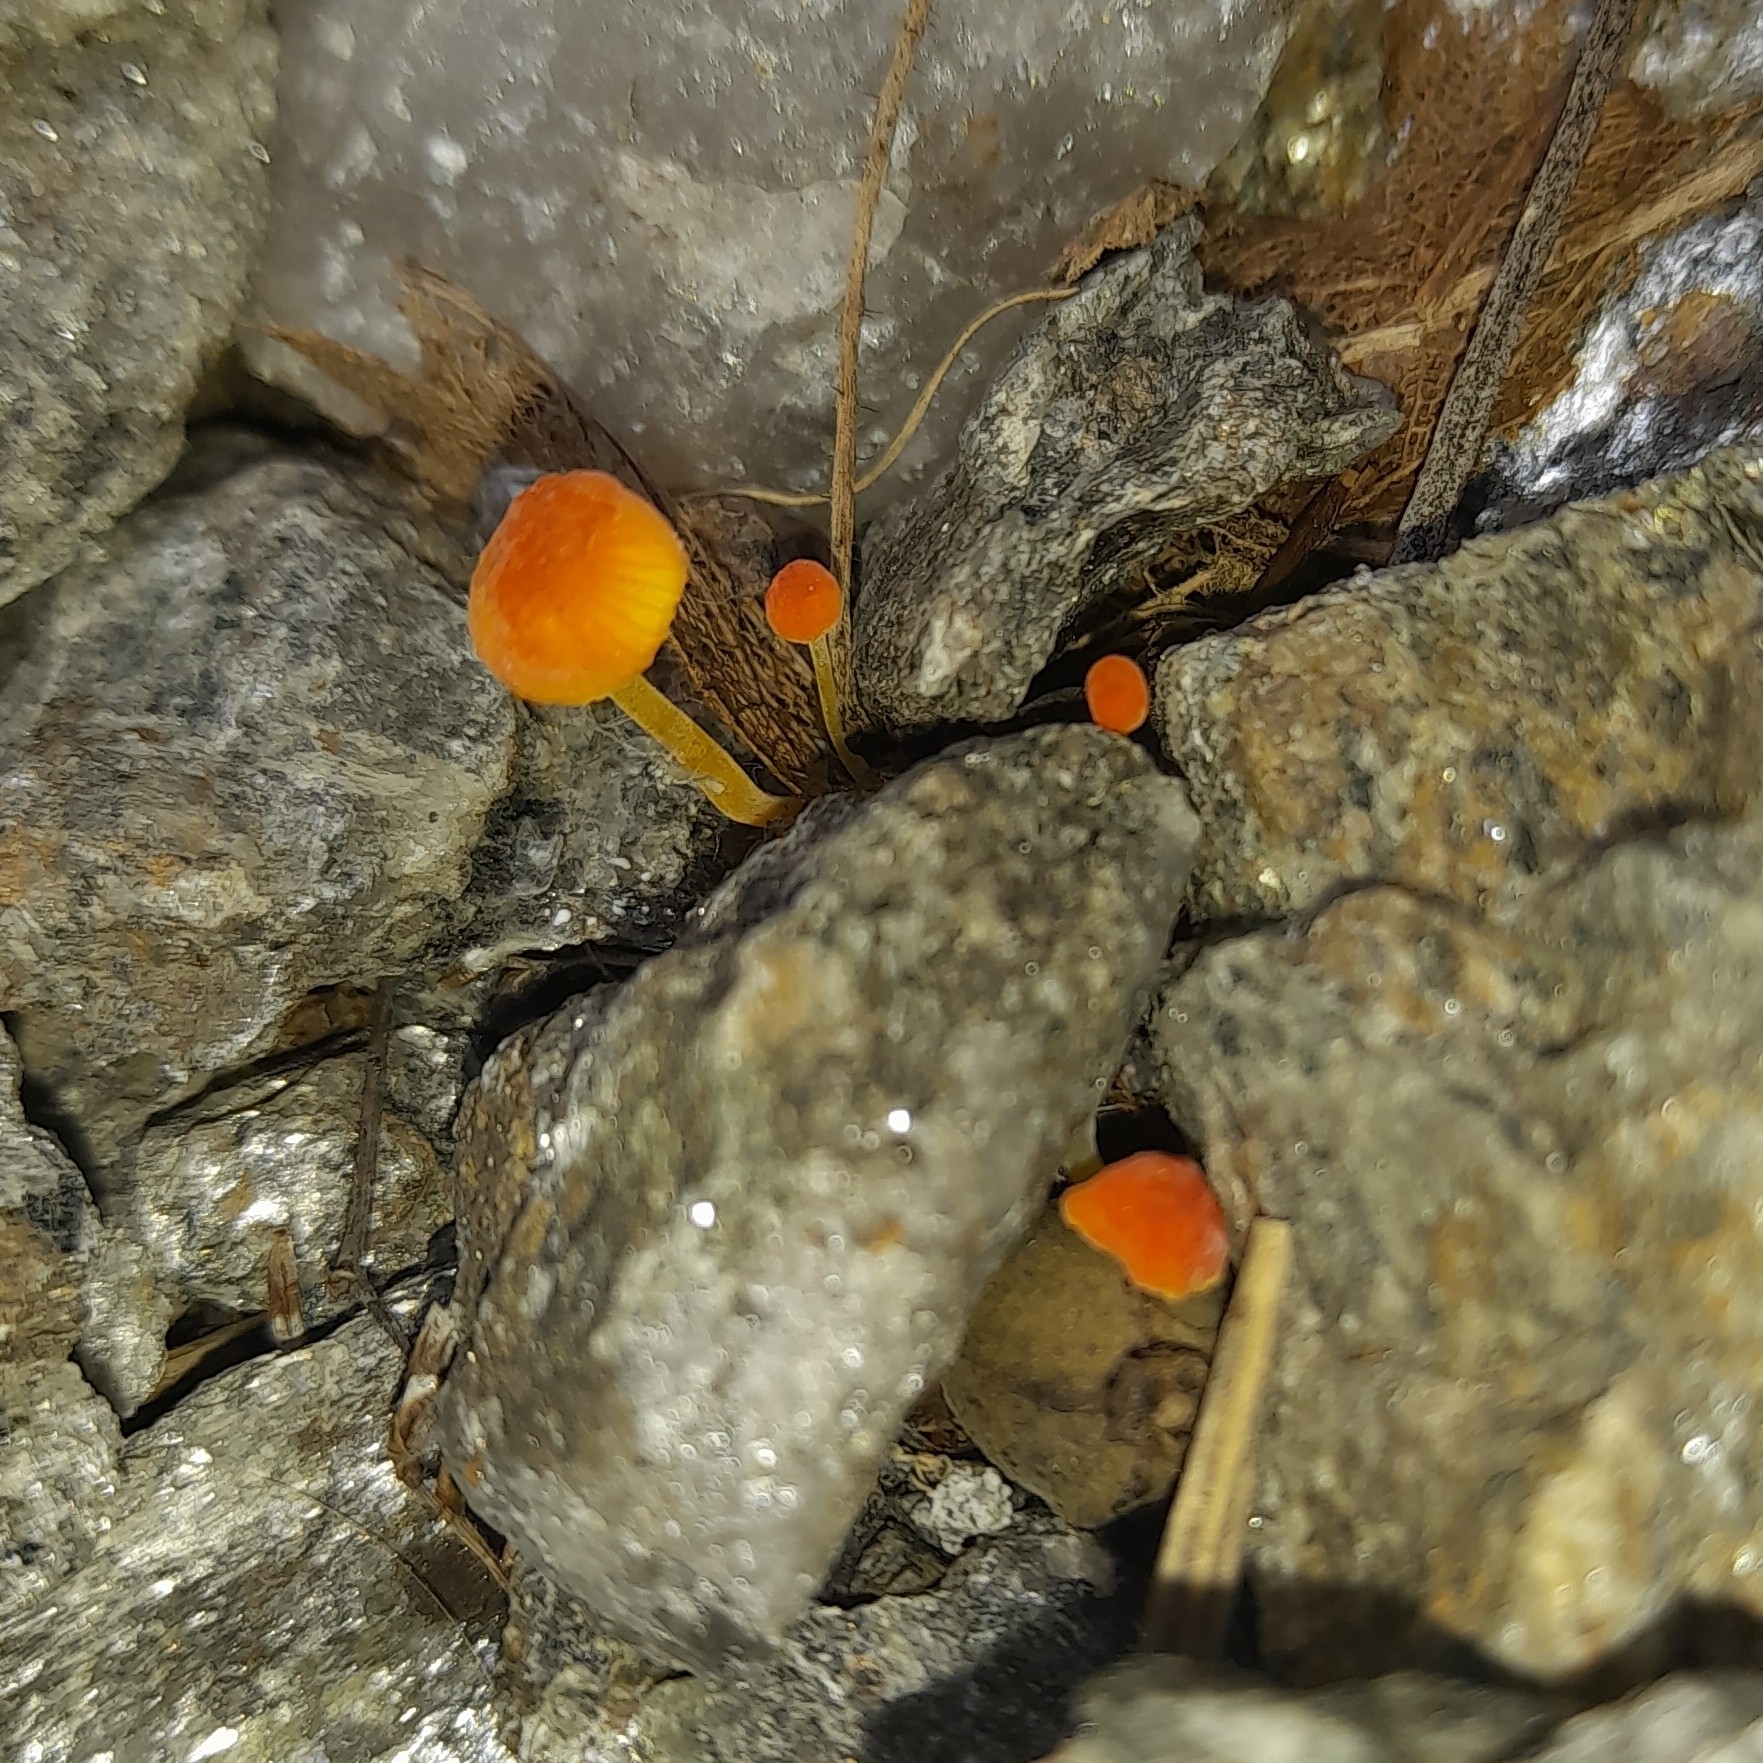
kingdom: Fungi
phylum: Basidiomycota
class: Agaricomycetes
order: Agaricales
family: Mycenaceae
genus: Mycena
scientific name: Mycena acicula
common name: Orange bonnet
